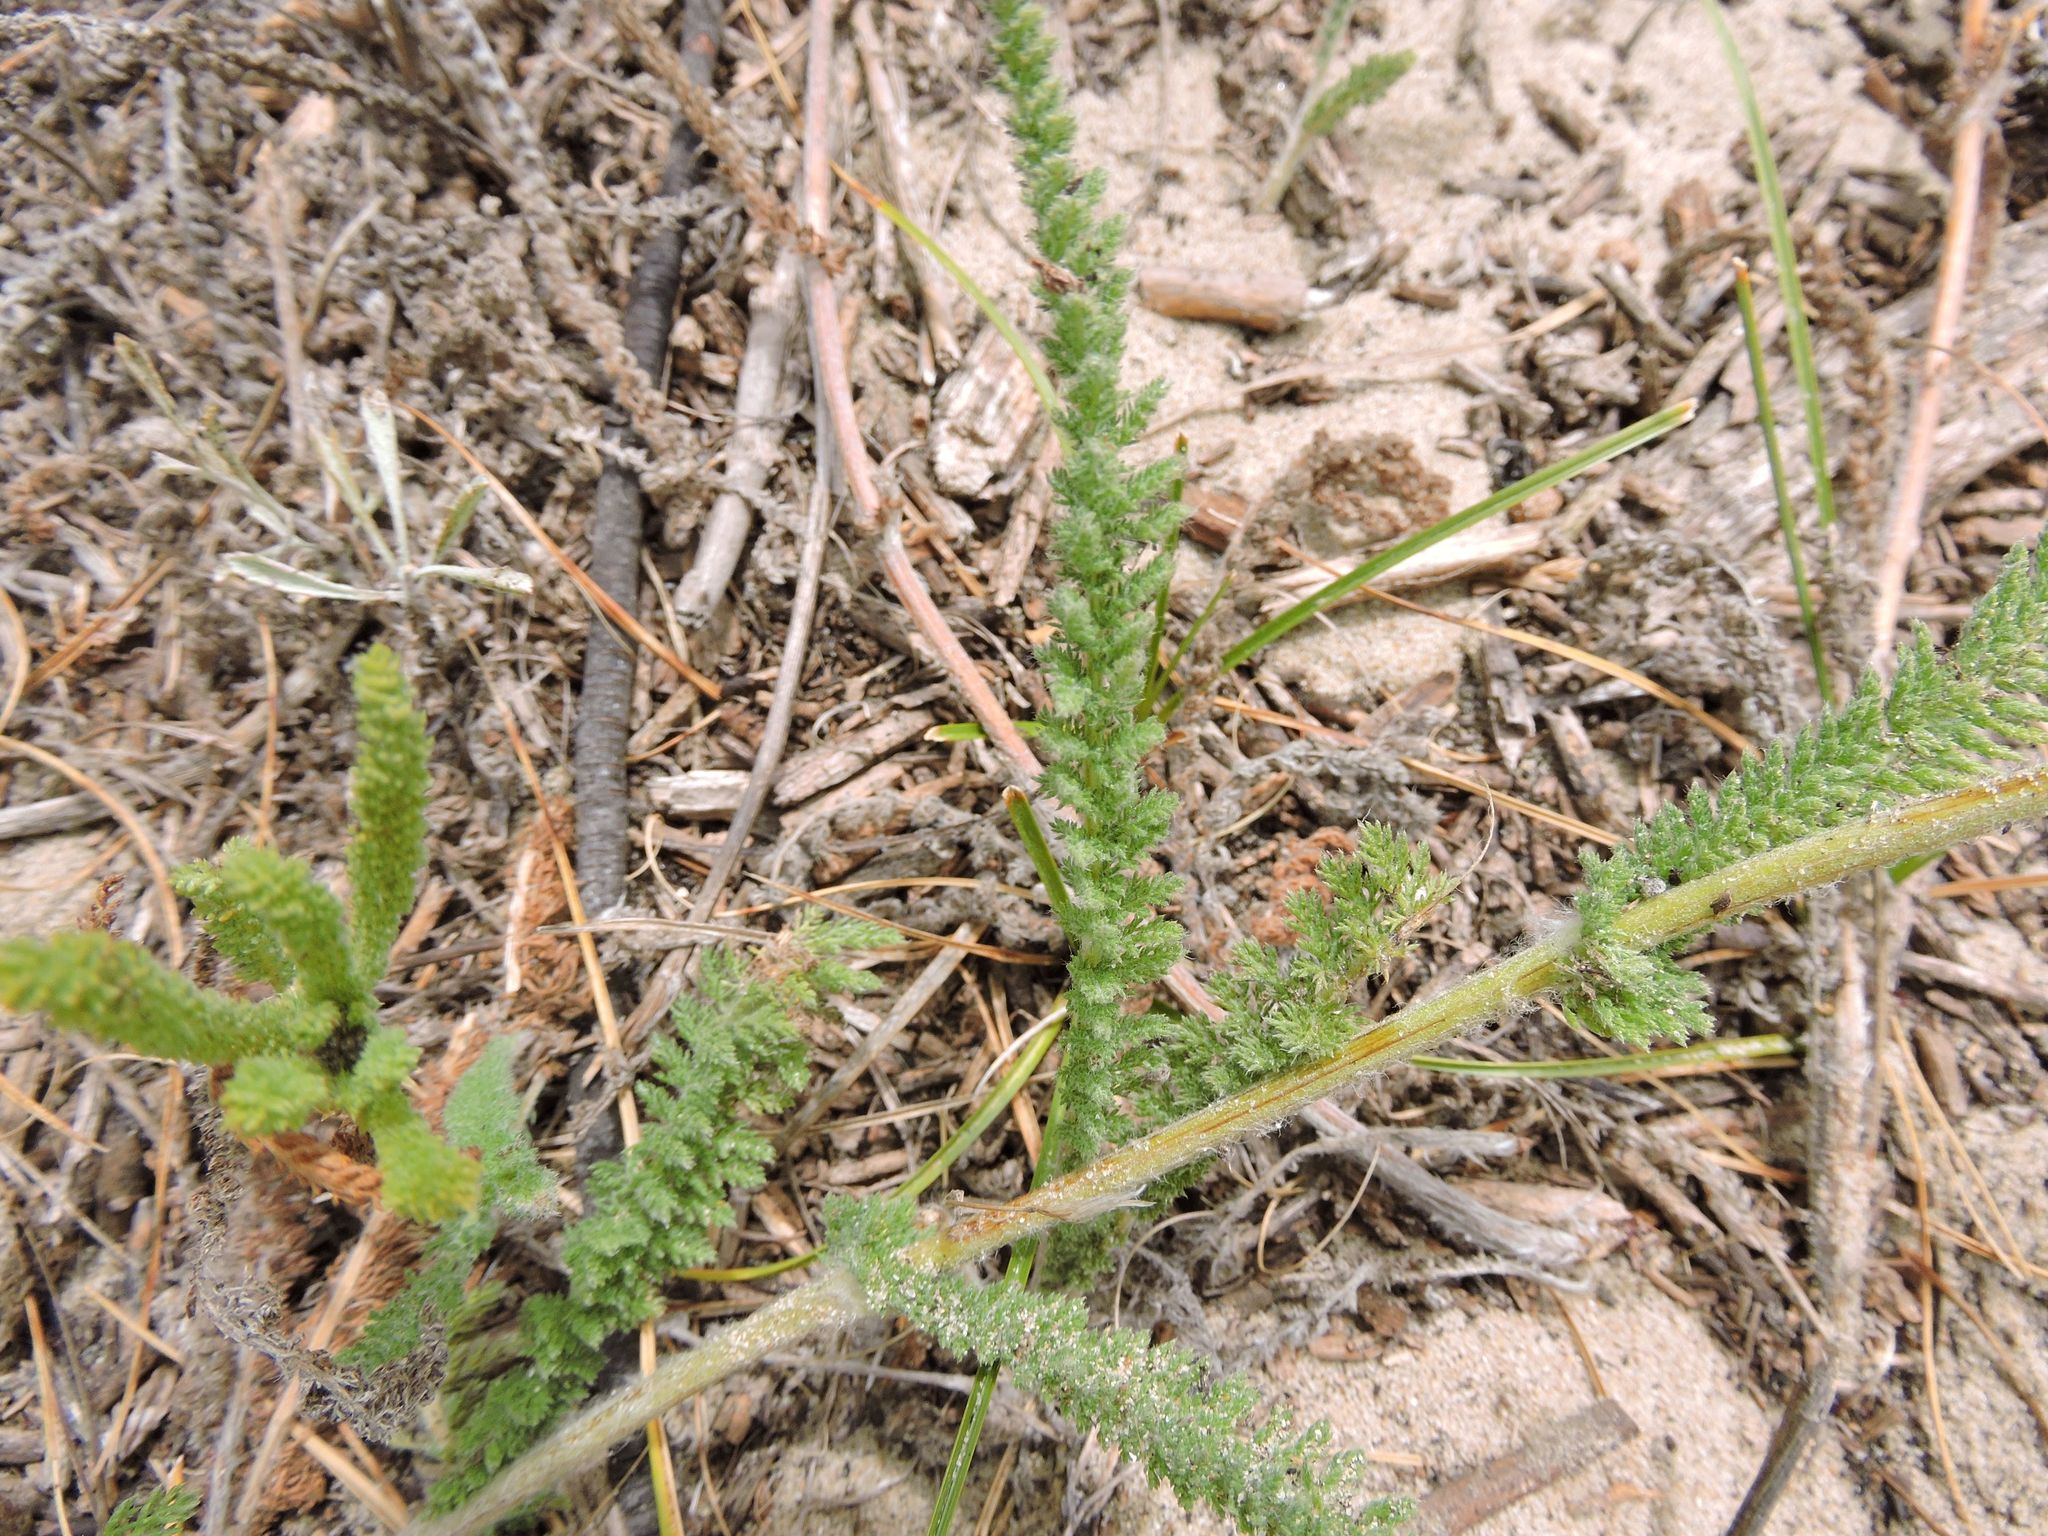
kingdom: Plantae
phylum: Tracheophyta
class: Magnoliopsida
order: Asterales
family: Asteraceae
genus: Achillea
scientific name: Achillea millefolium
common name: Yarrow
